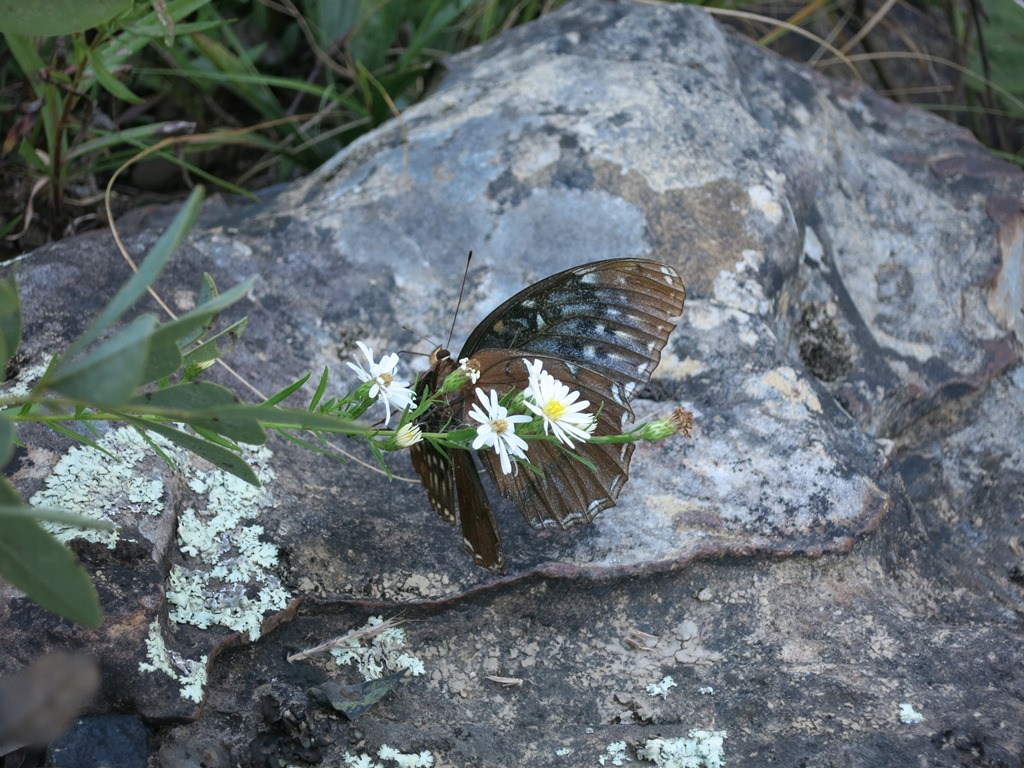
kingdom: Animalia
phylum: Arthropoda
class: Insecta
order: Lepidoptera
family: Nymphalidae
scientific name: Nymphalidae
